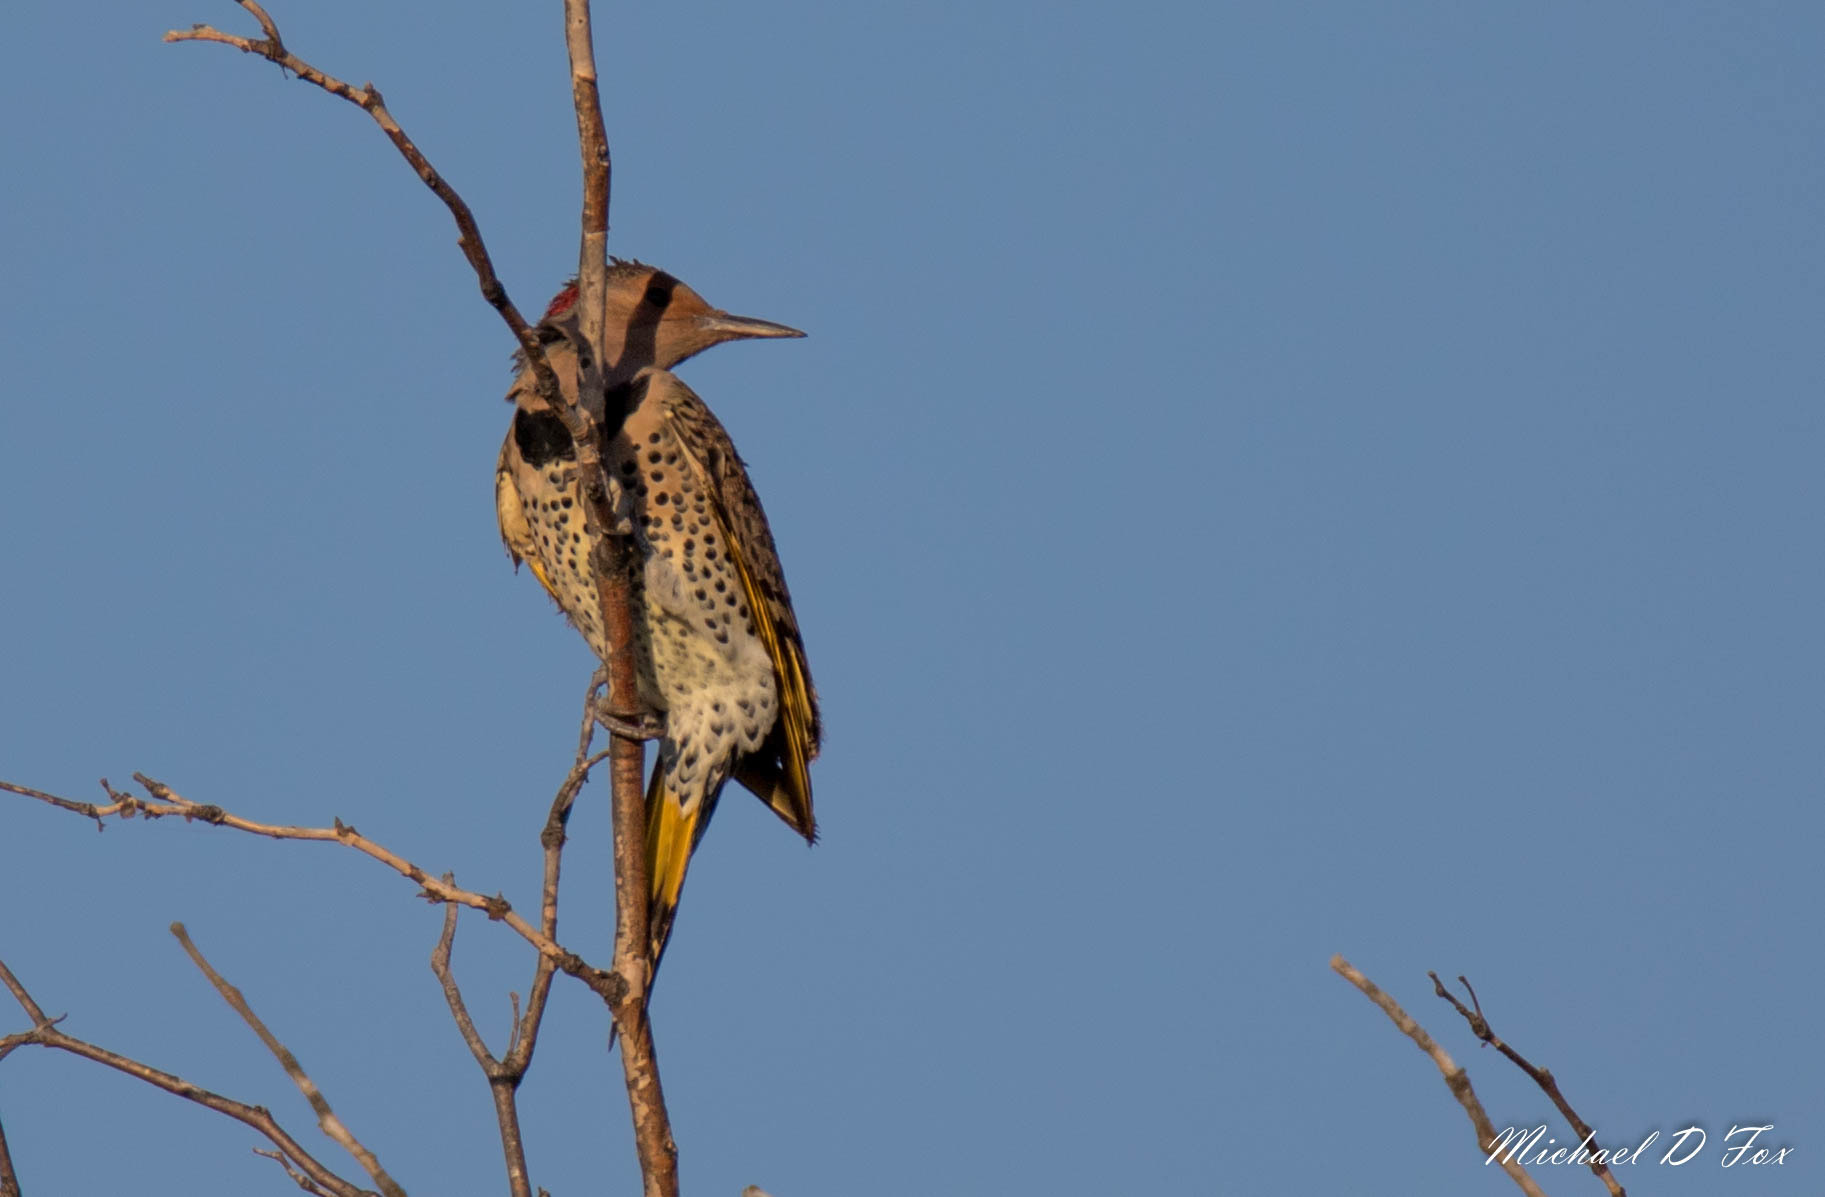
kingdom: Animalia
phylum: Chordata
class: Aves
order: Piciformes
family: Picidae
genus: Colaptes
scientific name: Colaptes auratus
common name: Northern flicker
